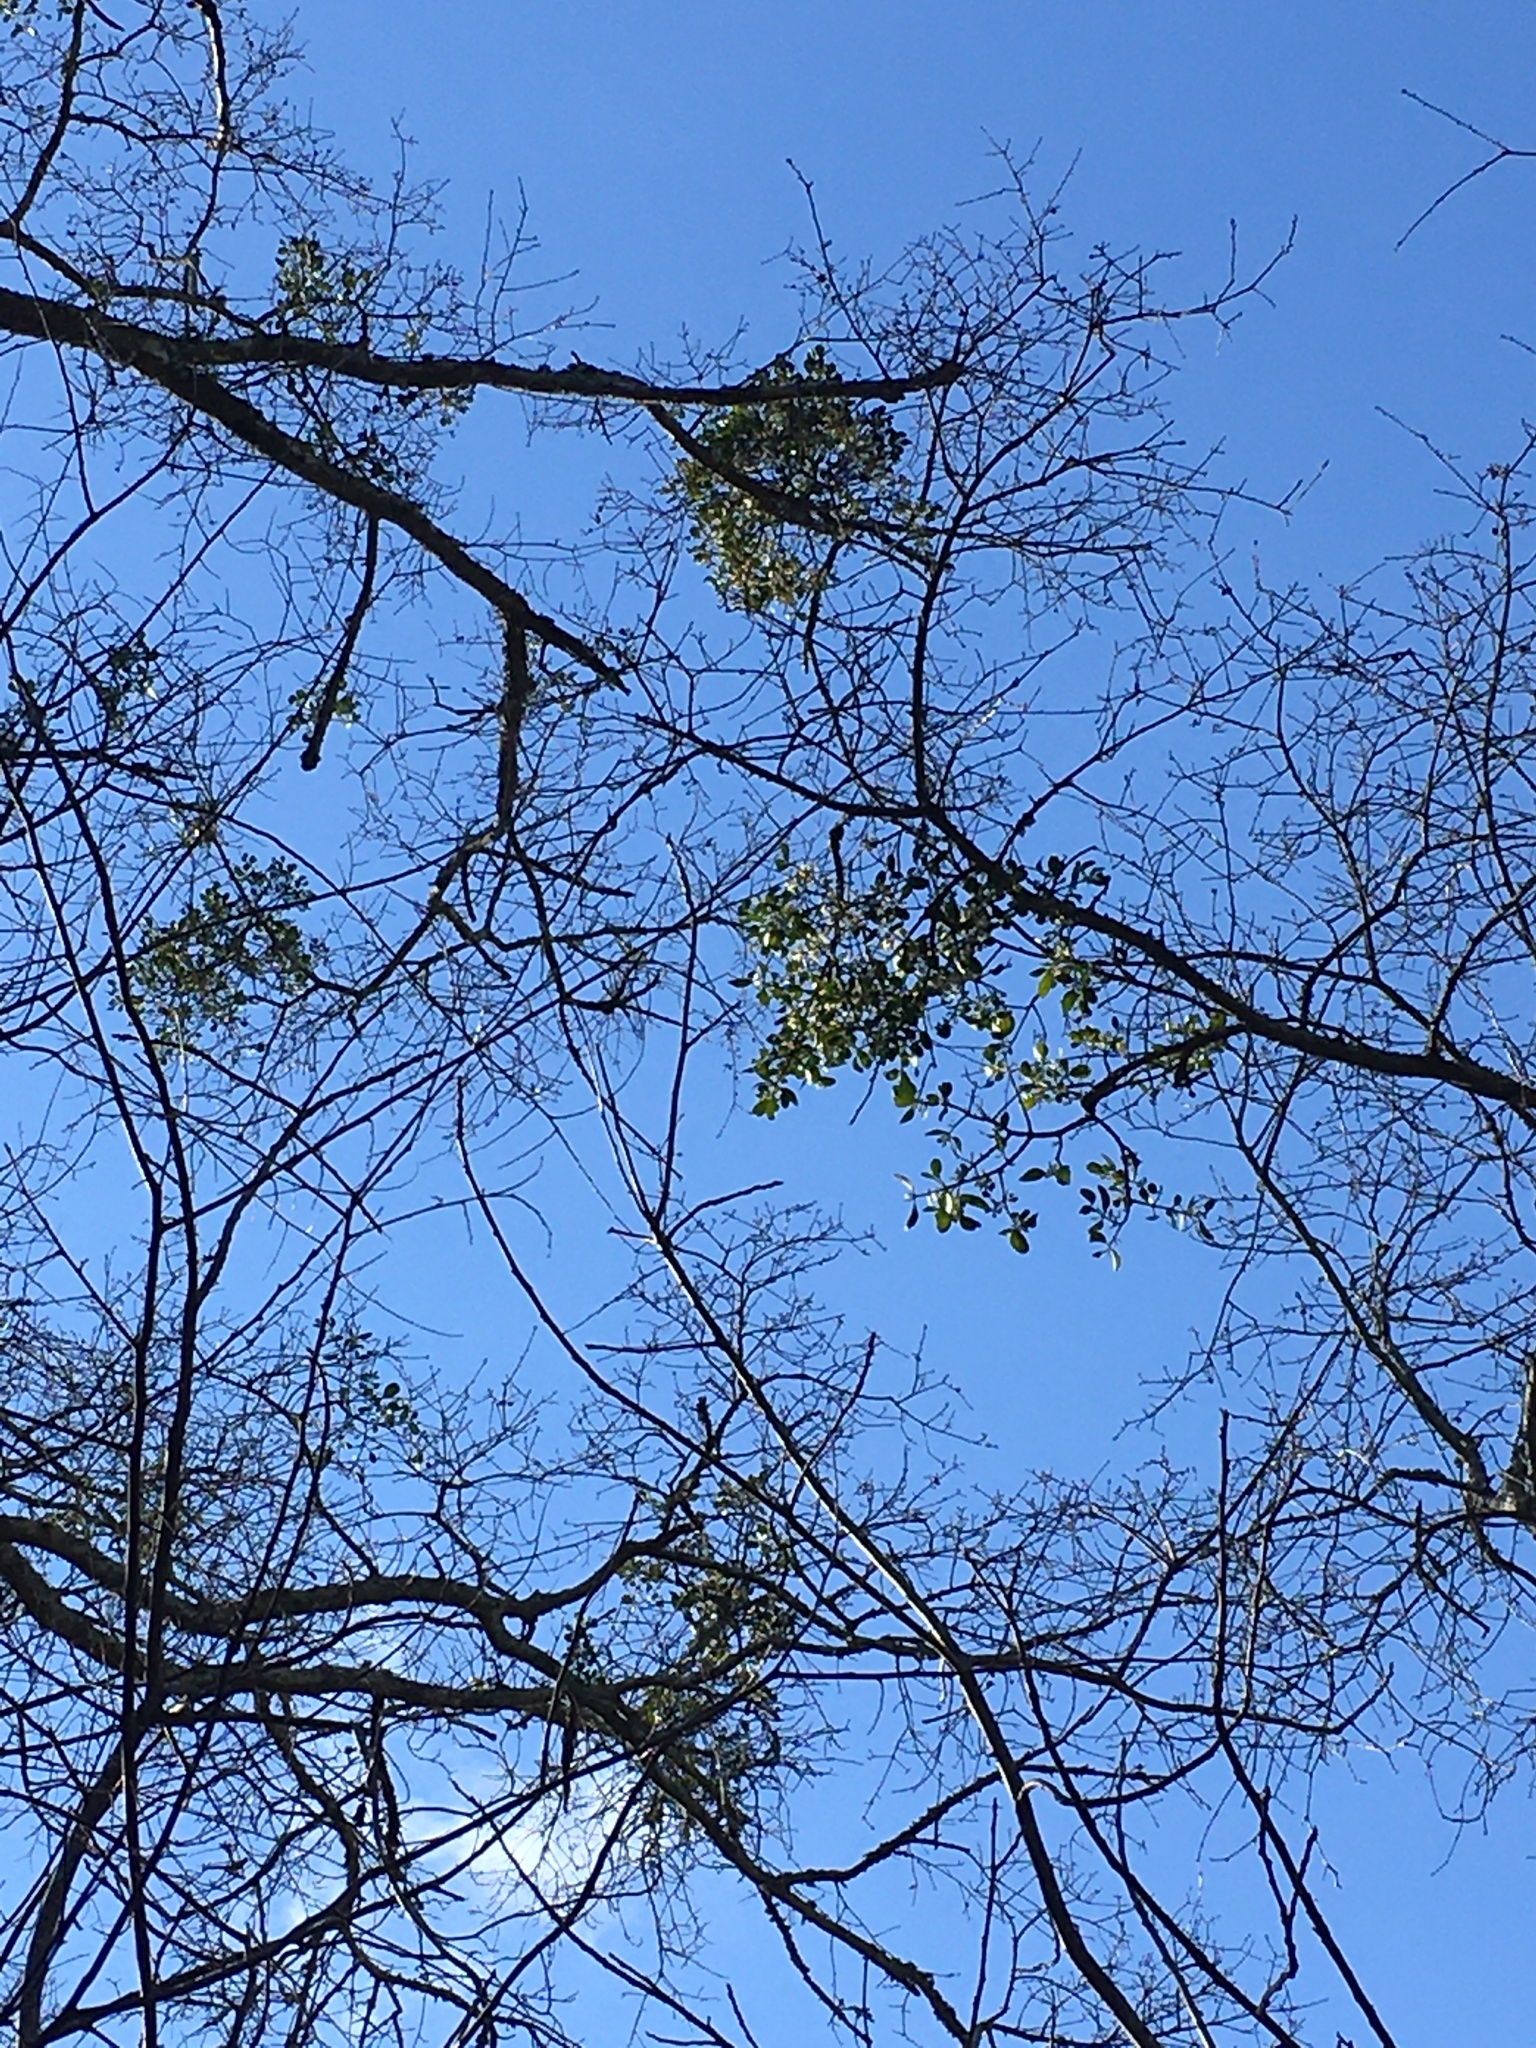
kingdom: Plantae
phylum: Tracheophyta
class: Magnoliopsida
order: Santalales
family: Viscaceae
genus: Phoradendron
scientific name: Phoradendron leucarpum
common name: Pacific mistletoe
